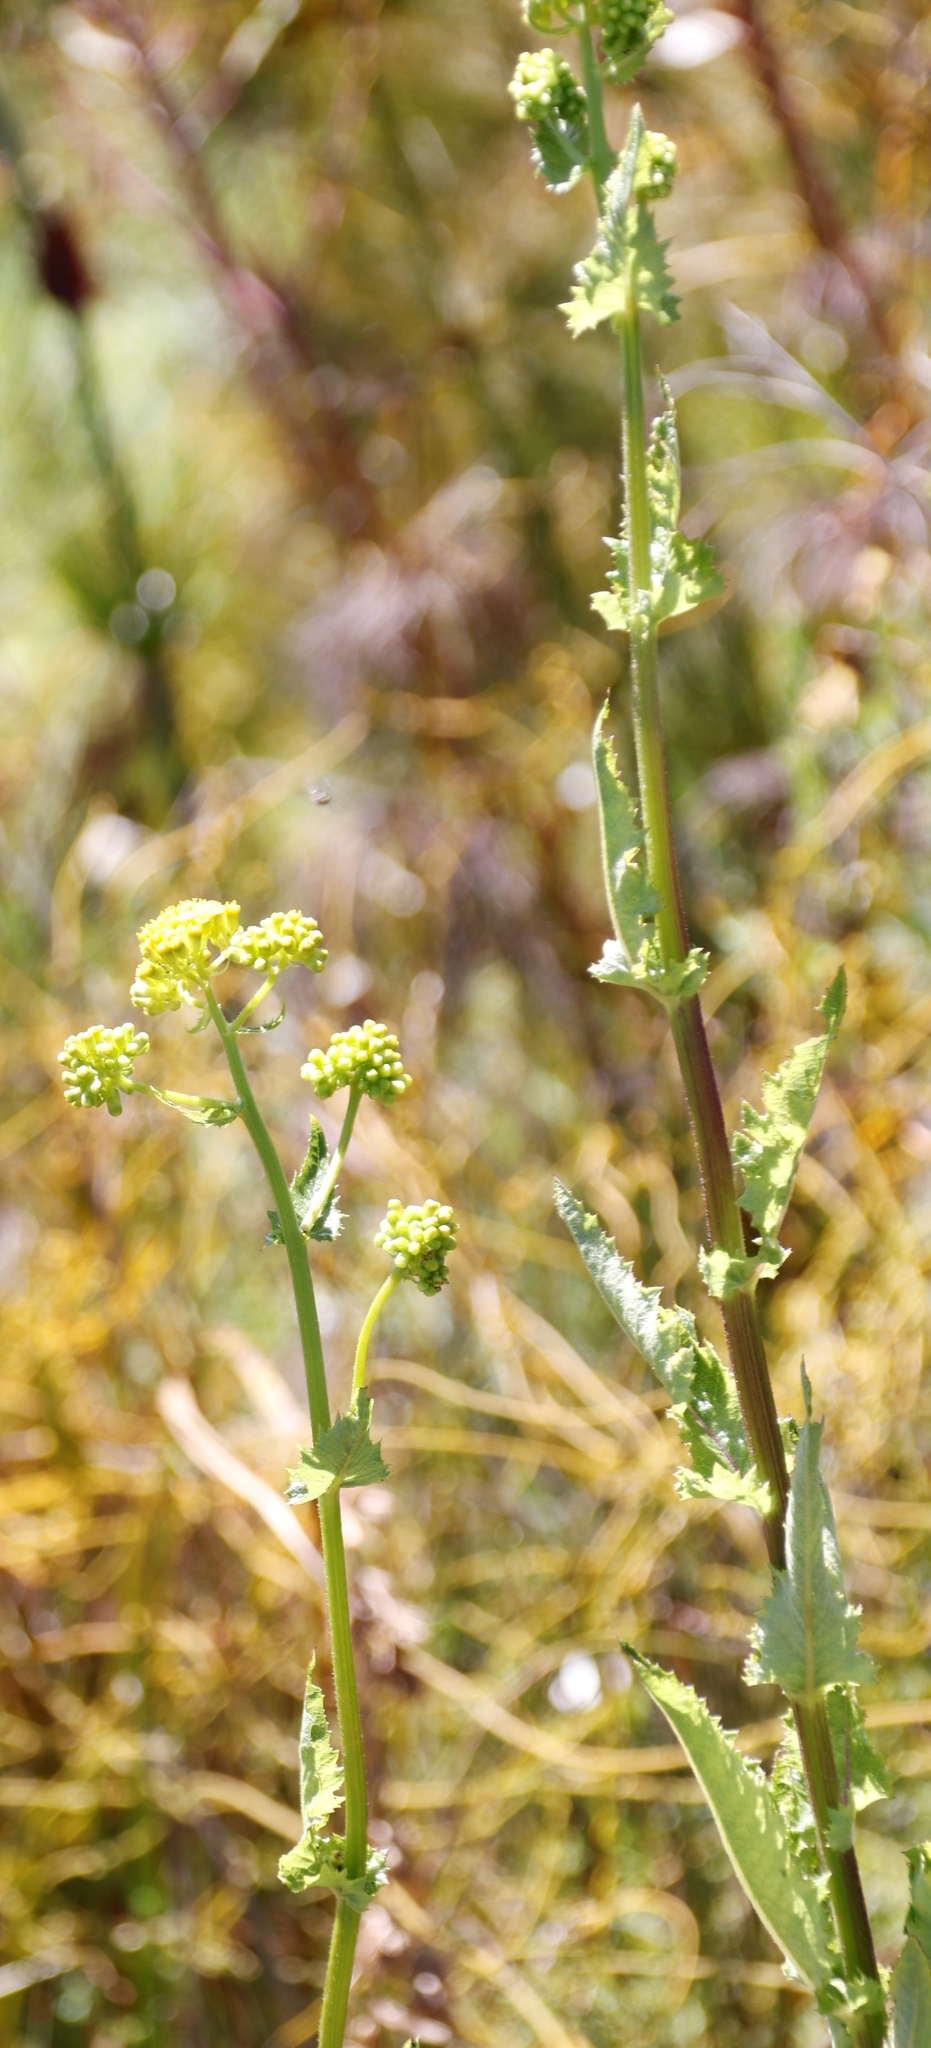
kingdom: Plantae
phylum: Tracheophyta
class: Magnoliopsida
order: Asterales
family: Asteraceae
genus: Senecio
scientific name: Senecio crispus
